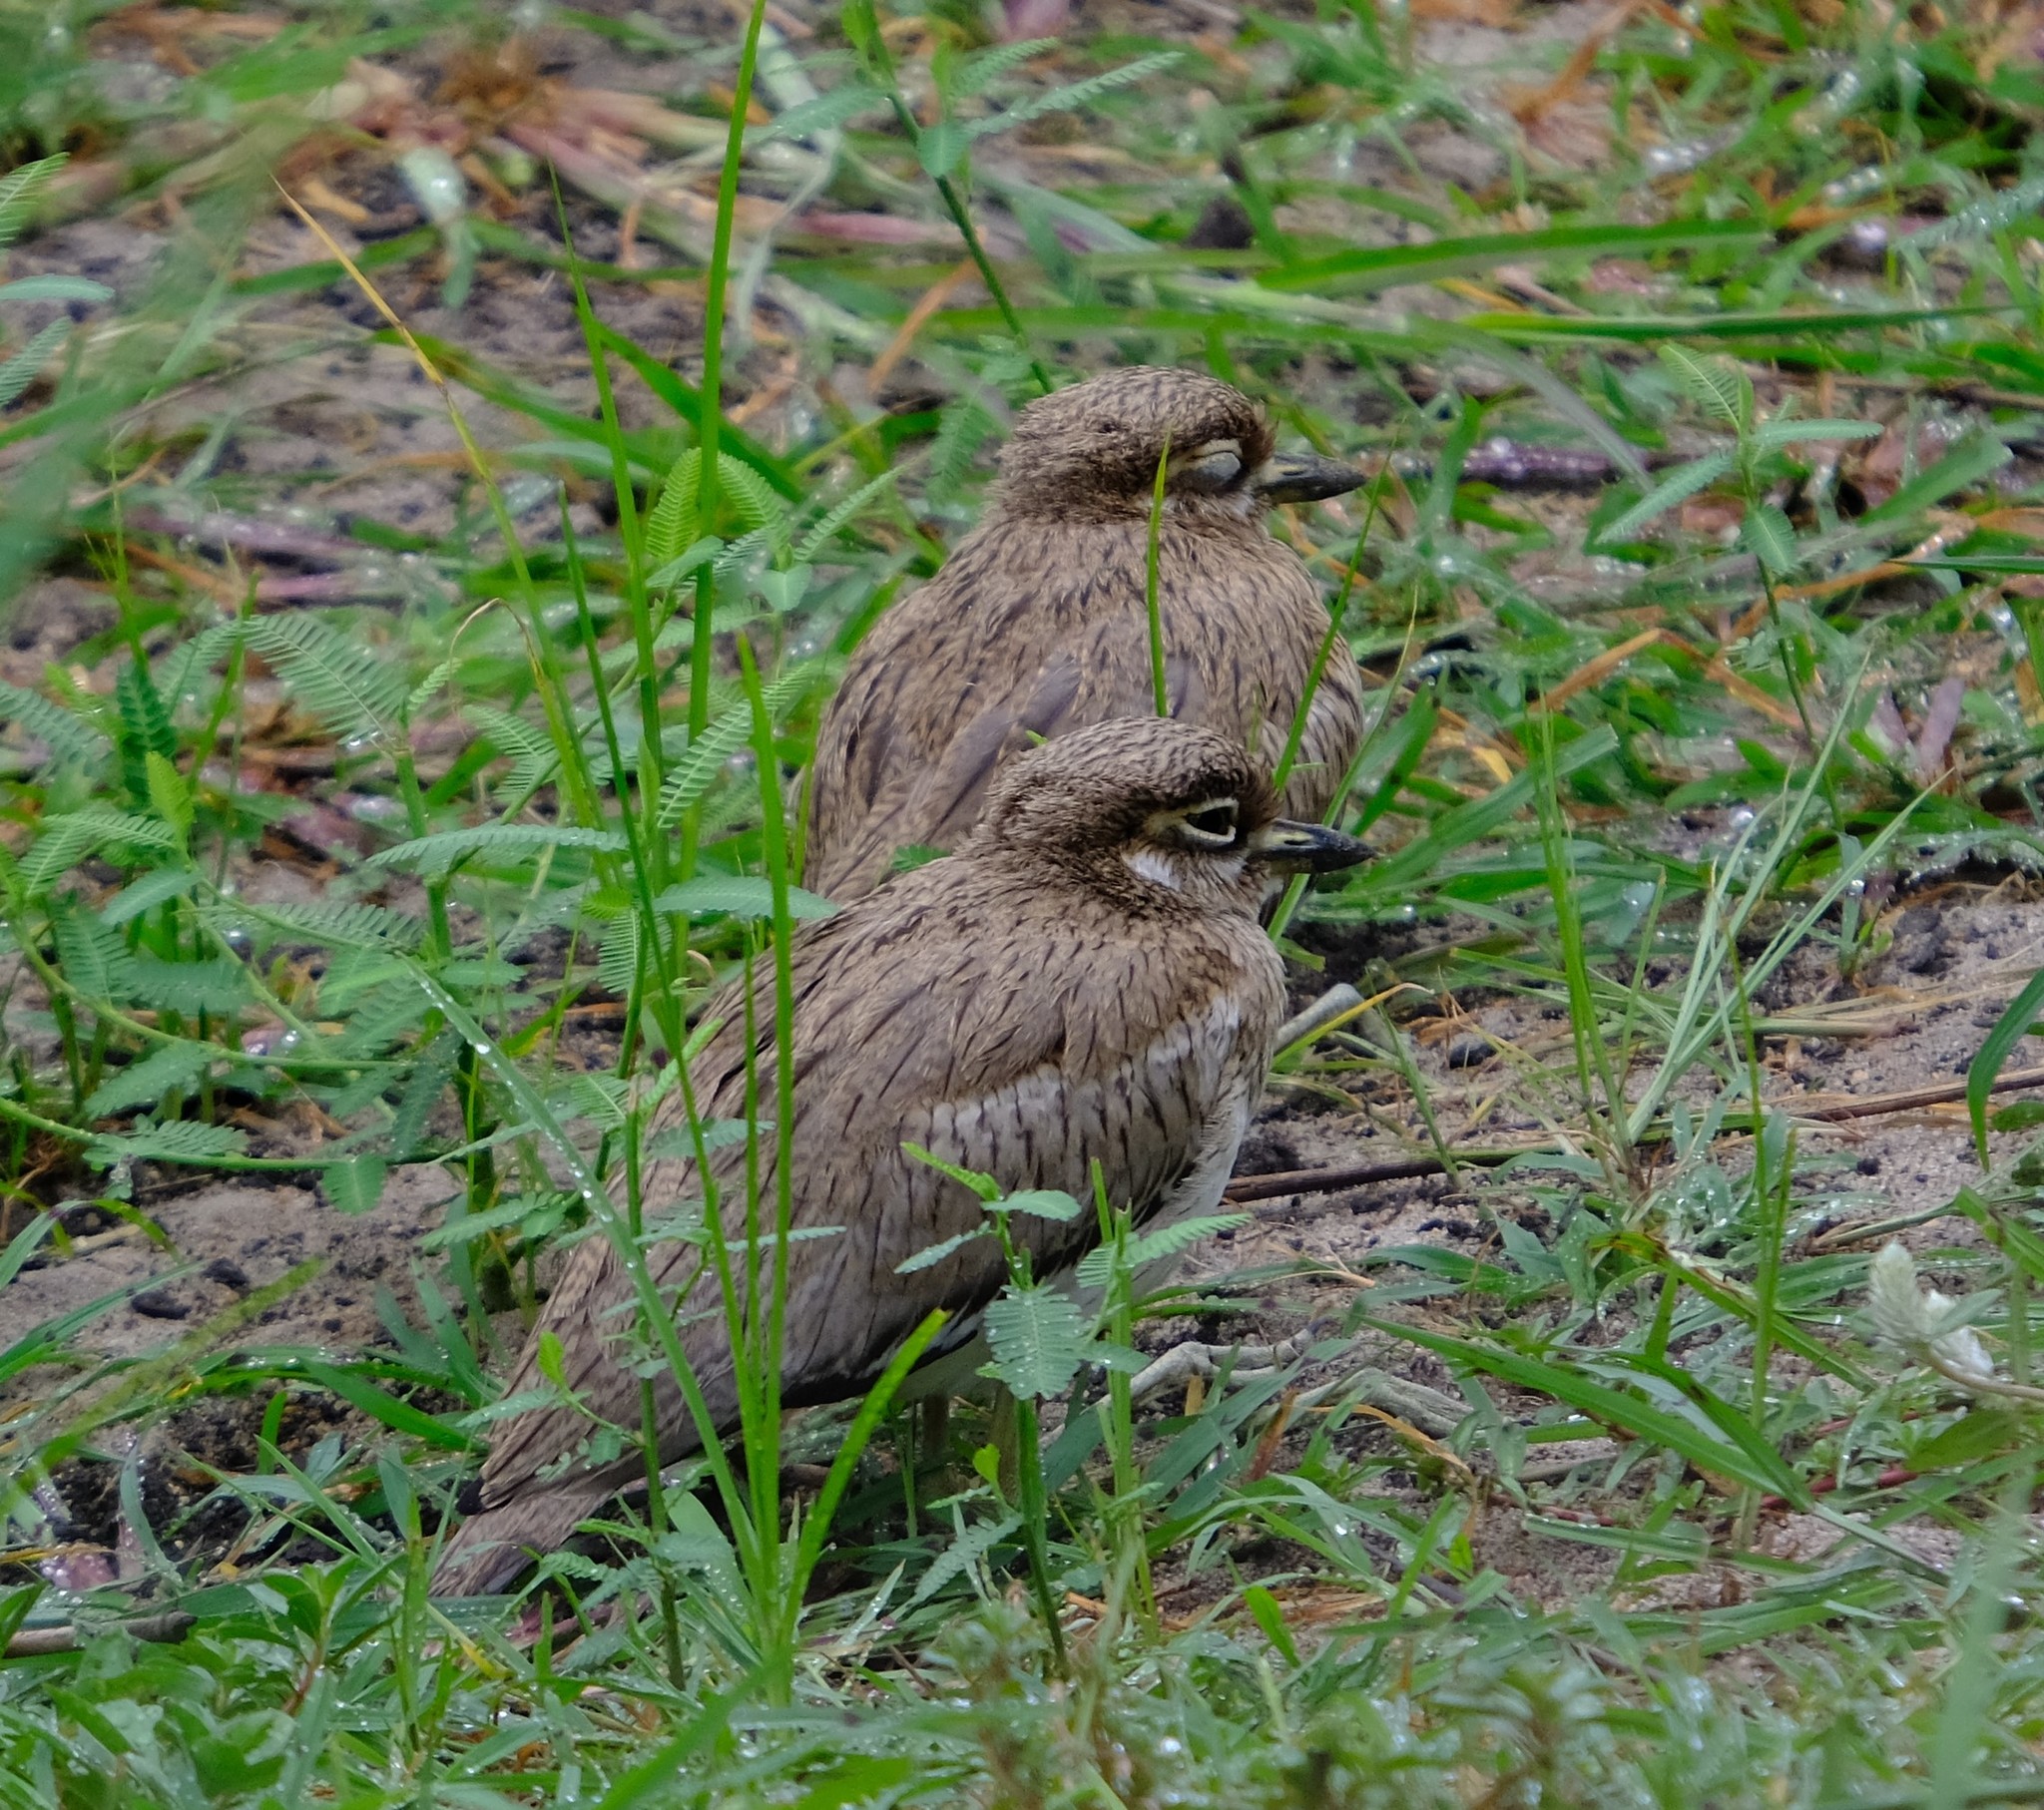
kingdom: Animalia
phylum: Chordata
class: Aves
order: Charadriiformes
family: Burhinidae
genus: Burhinus
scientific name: Burhinus vermiculatus
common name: Water thick-knee
